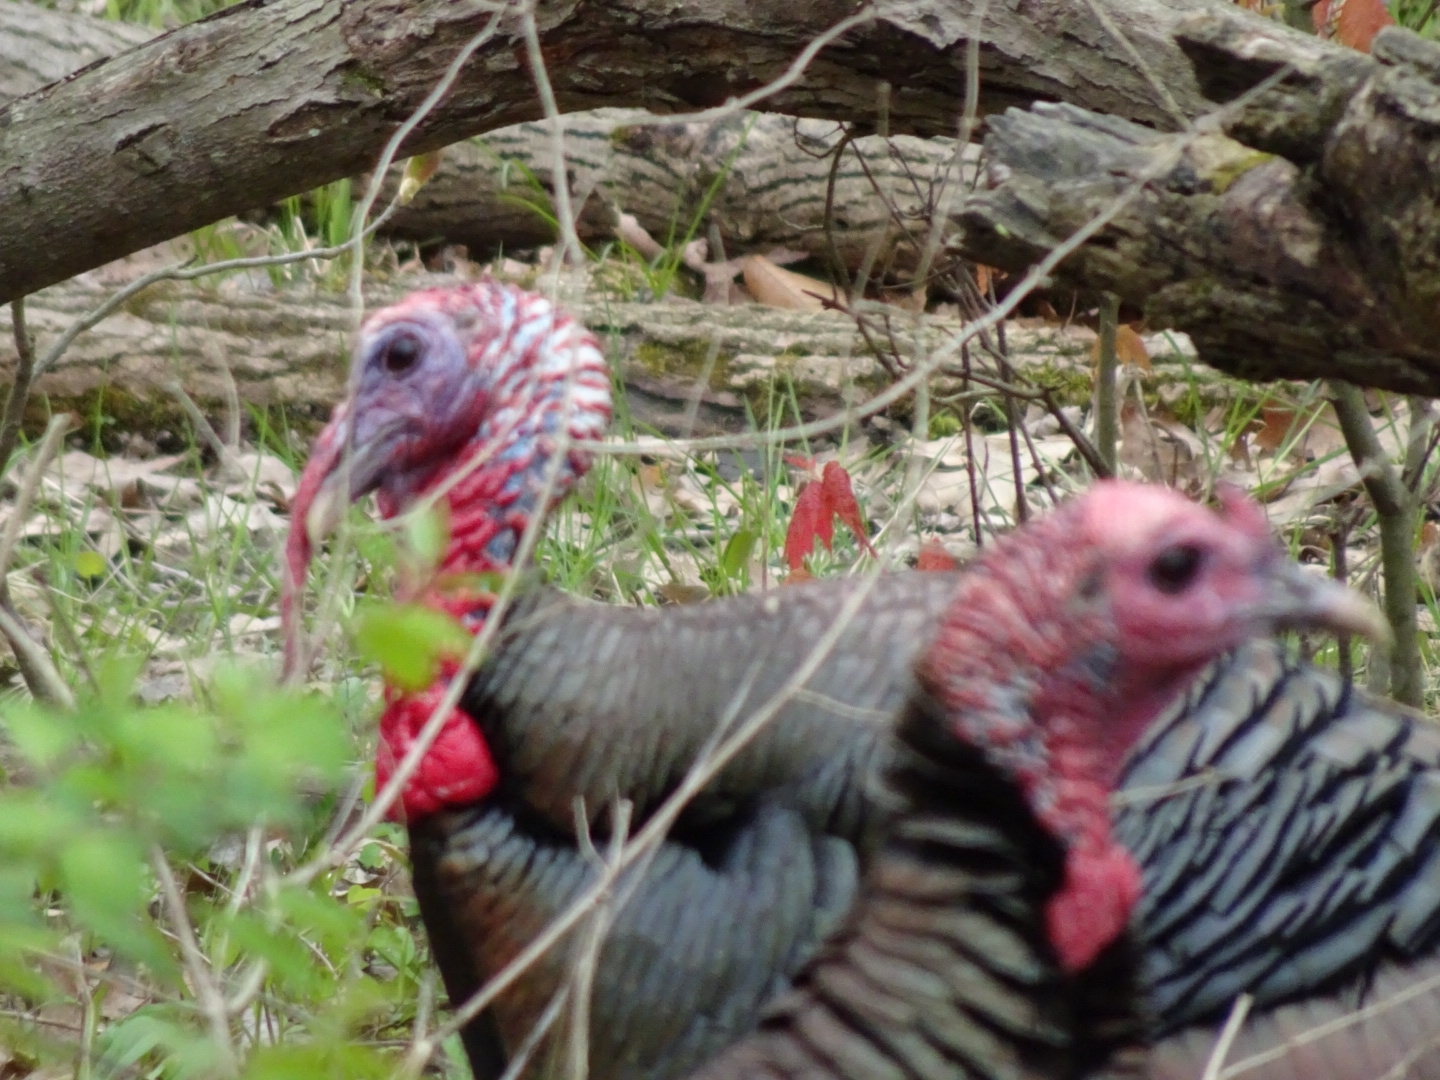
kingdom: Animalia
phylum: Chordata
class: Aves
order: Galliformes
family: Phasianidae
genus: Meleagris
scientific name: Meleagris gallopavo
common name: Wild turkey
